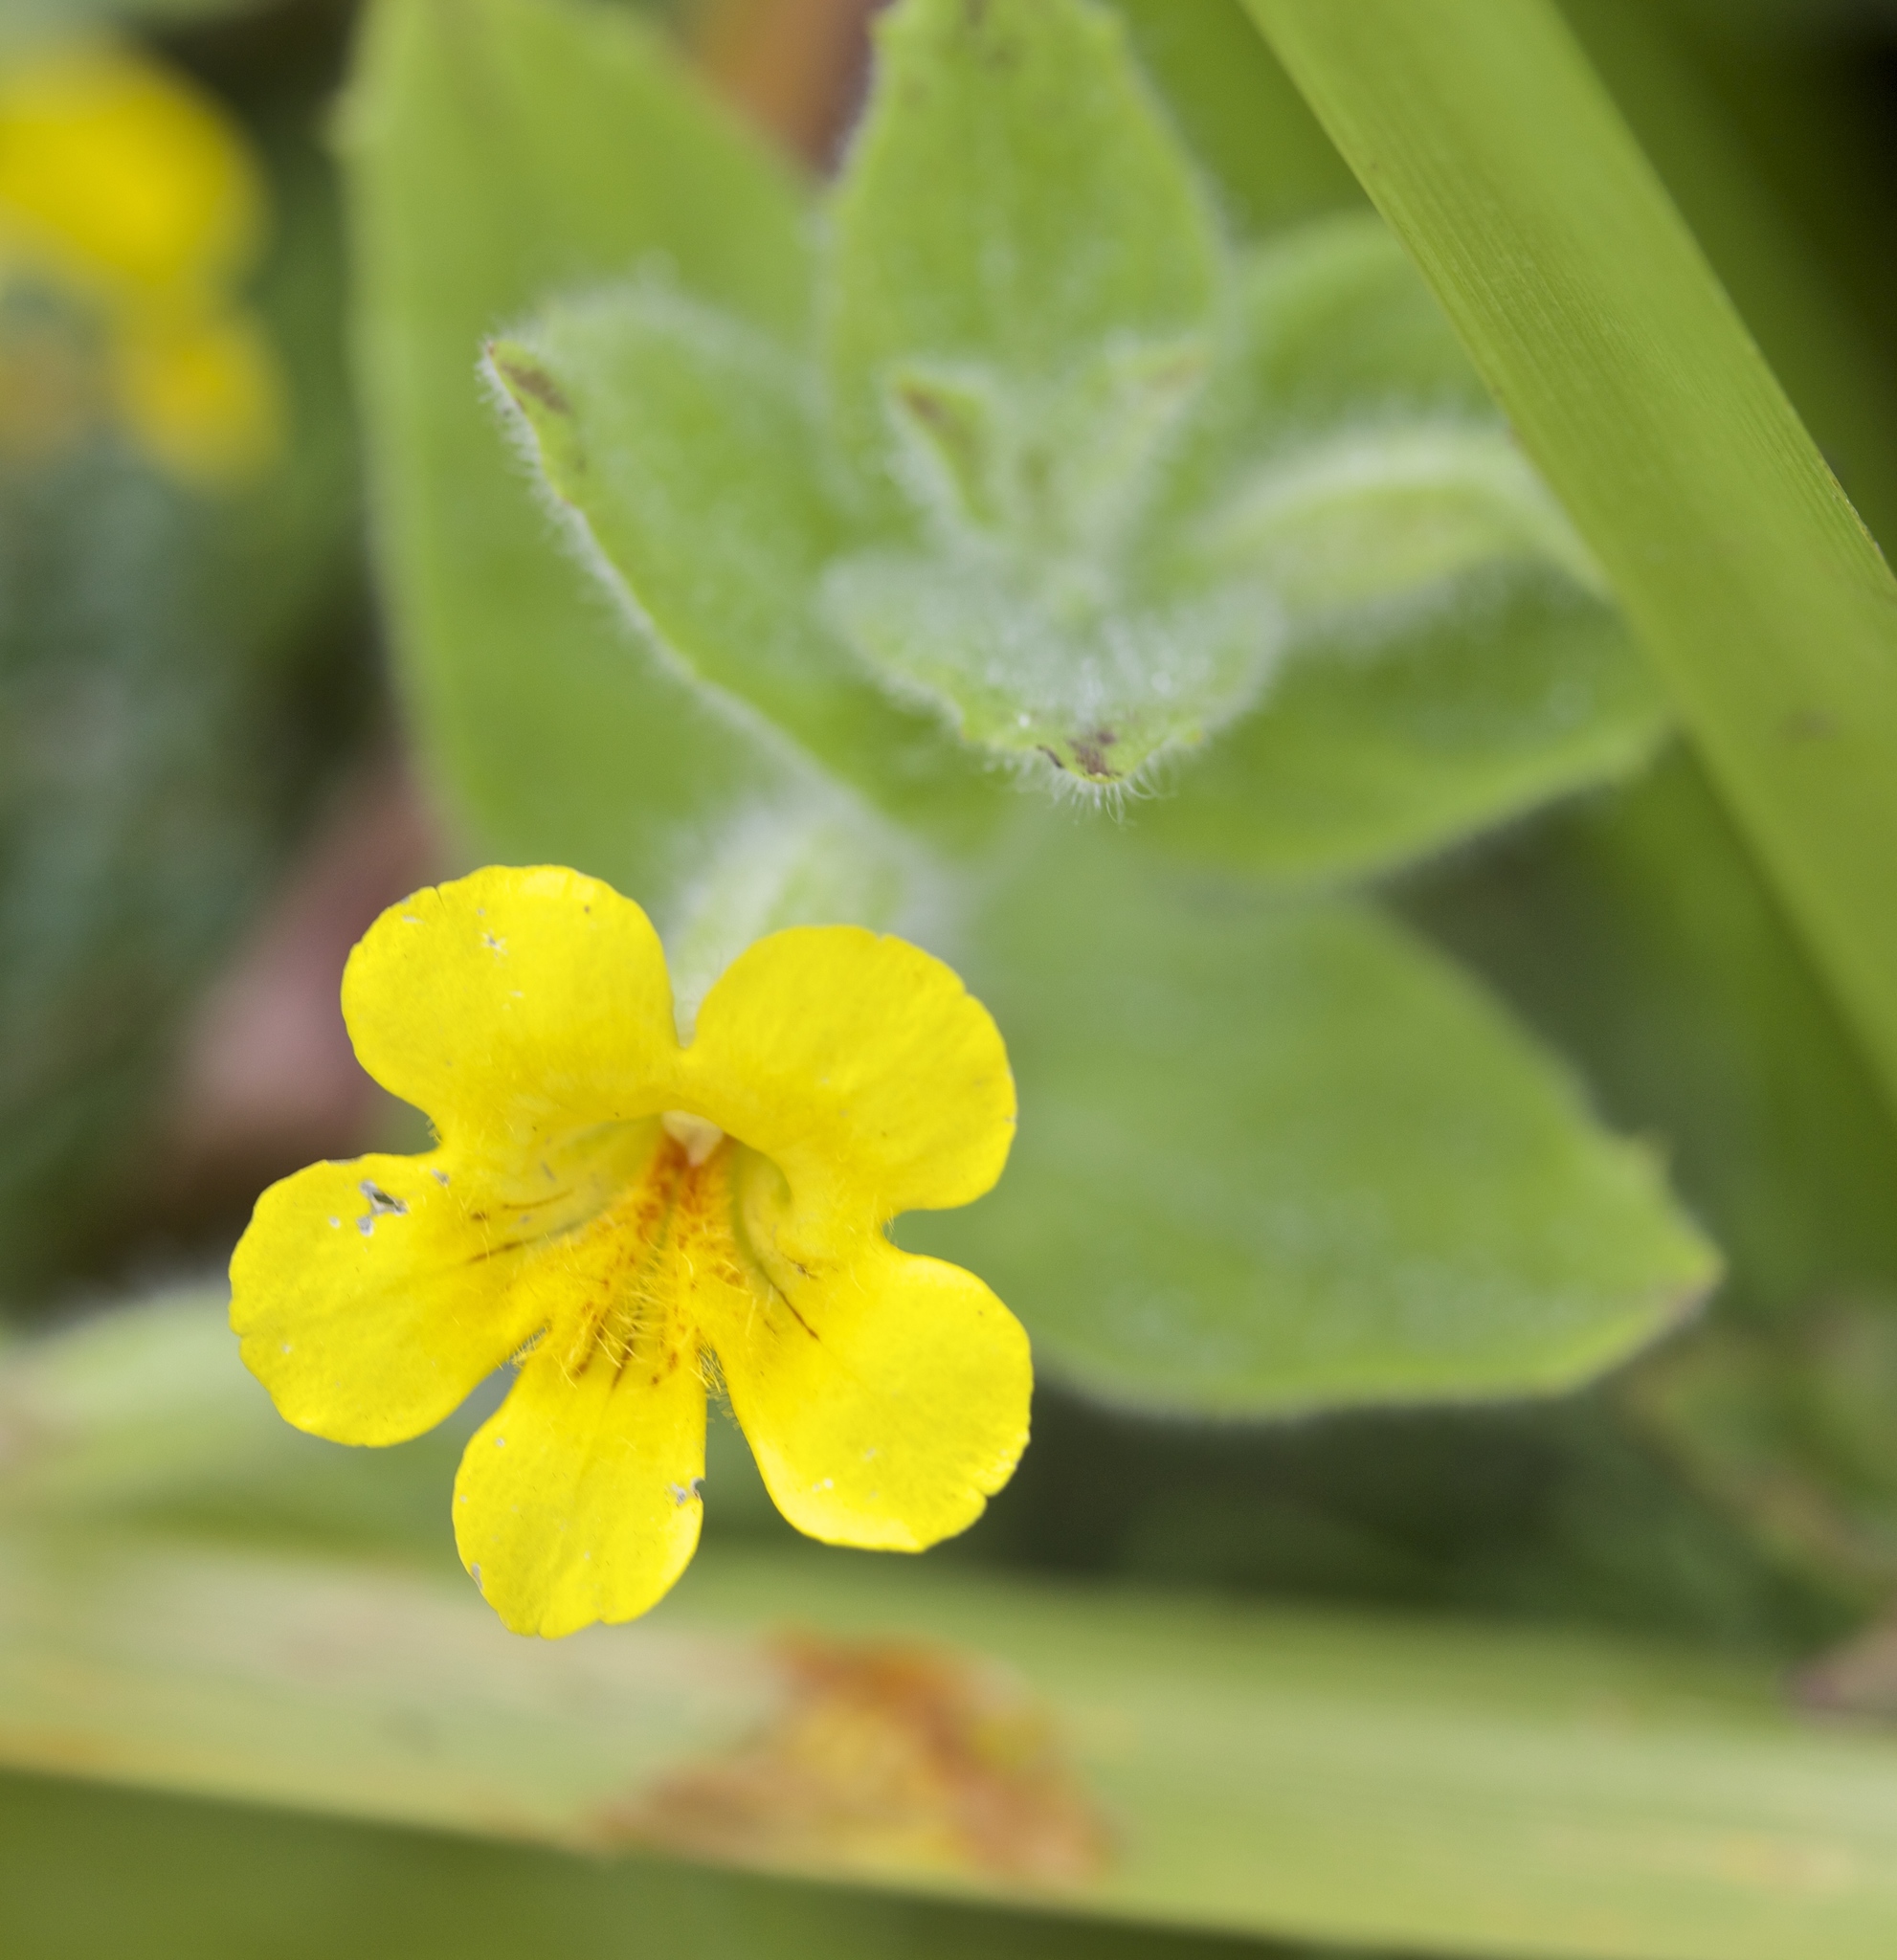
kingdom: Plantae
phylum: Tracheophyta
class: Magnoliopsida
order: Lamiales
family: Phrymaceae
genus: Erythranthe
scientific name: Erythranthe ptilota
